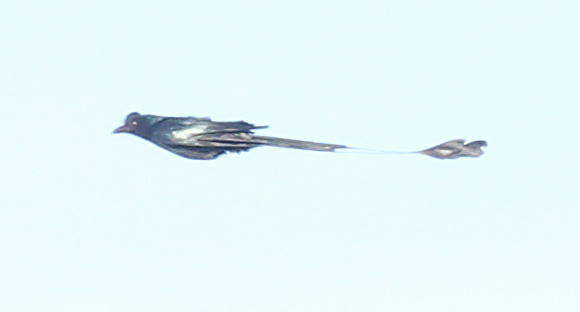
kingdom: Animalia
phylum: Chordata
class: Aves
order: Passeriformes
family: Dicruridae
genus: Dicrurus
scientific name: Dicrurus paradiseus
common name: Greater racket-tailed drongo
